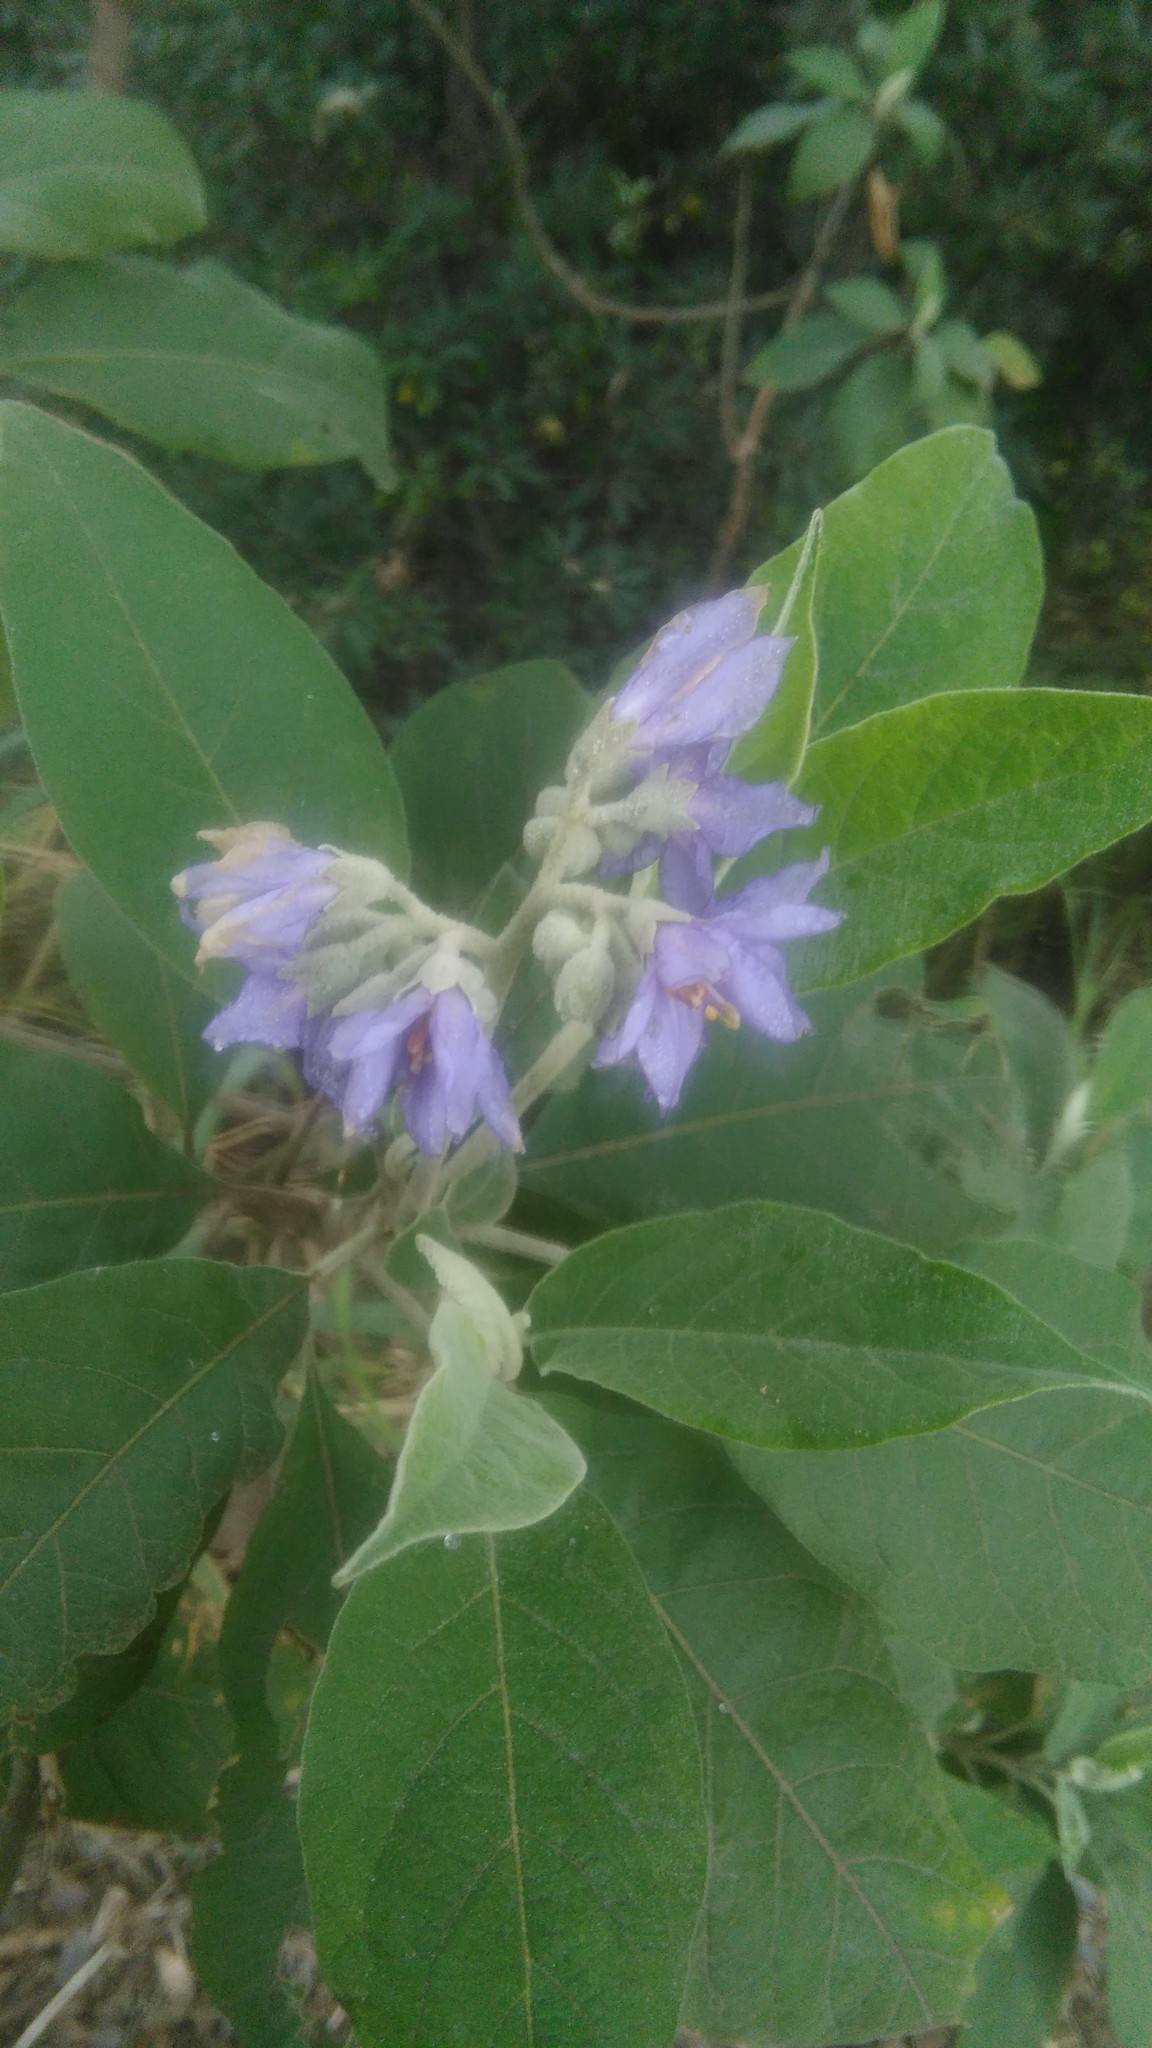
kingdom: Plantae
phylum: Tracheophyta
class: Magnoliopsida
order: Solanales
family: Solanaceae
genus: Solanum
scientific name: Solanum granulosoleprosum
